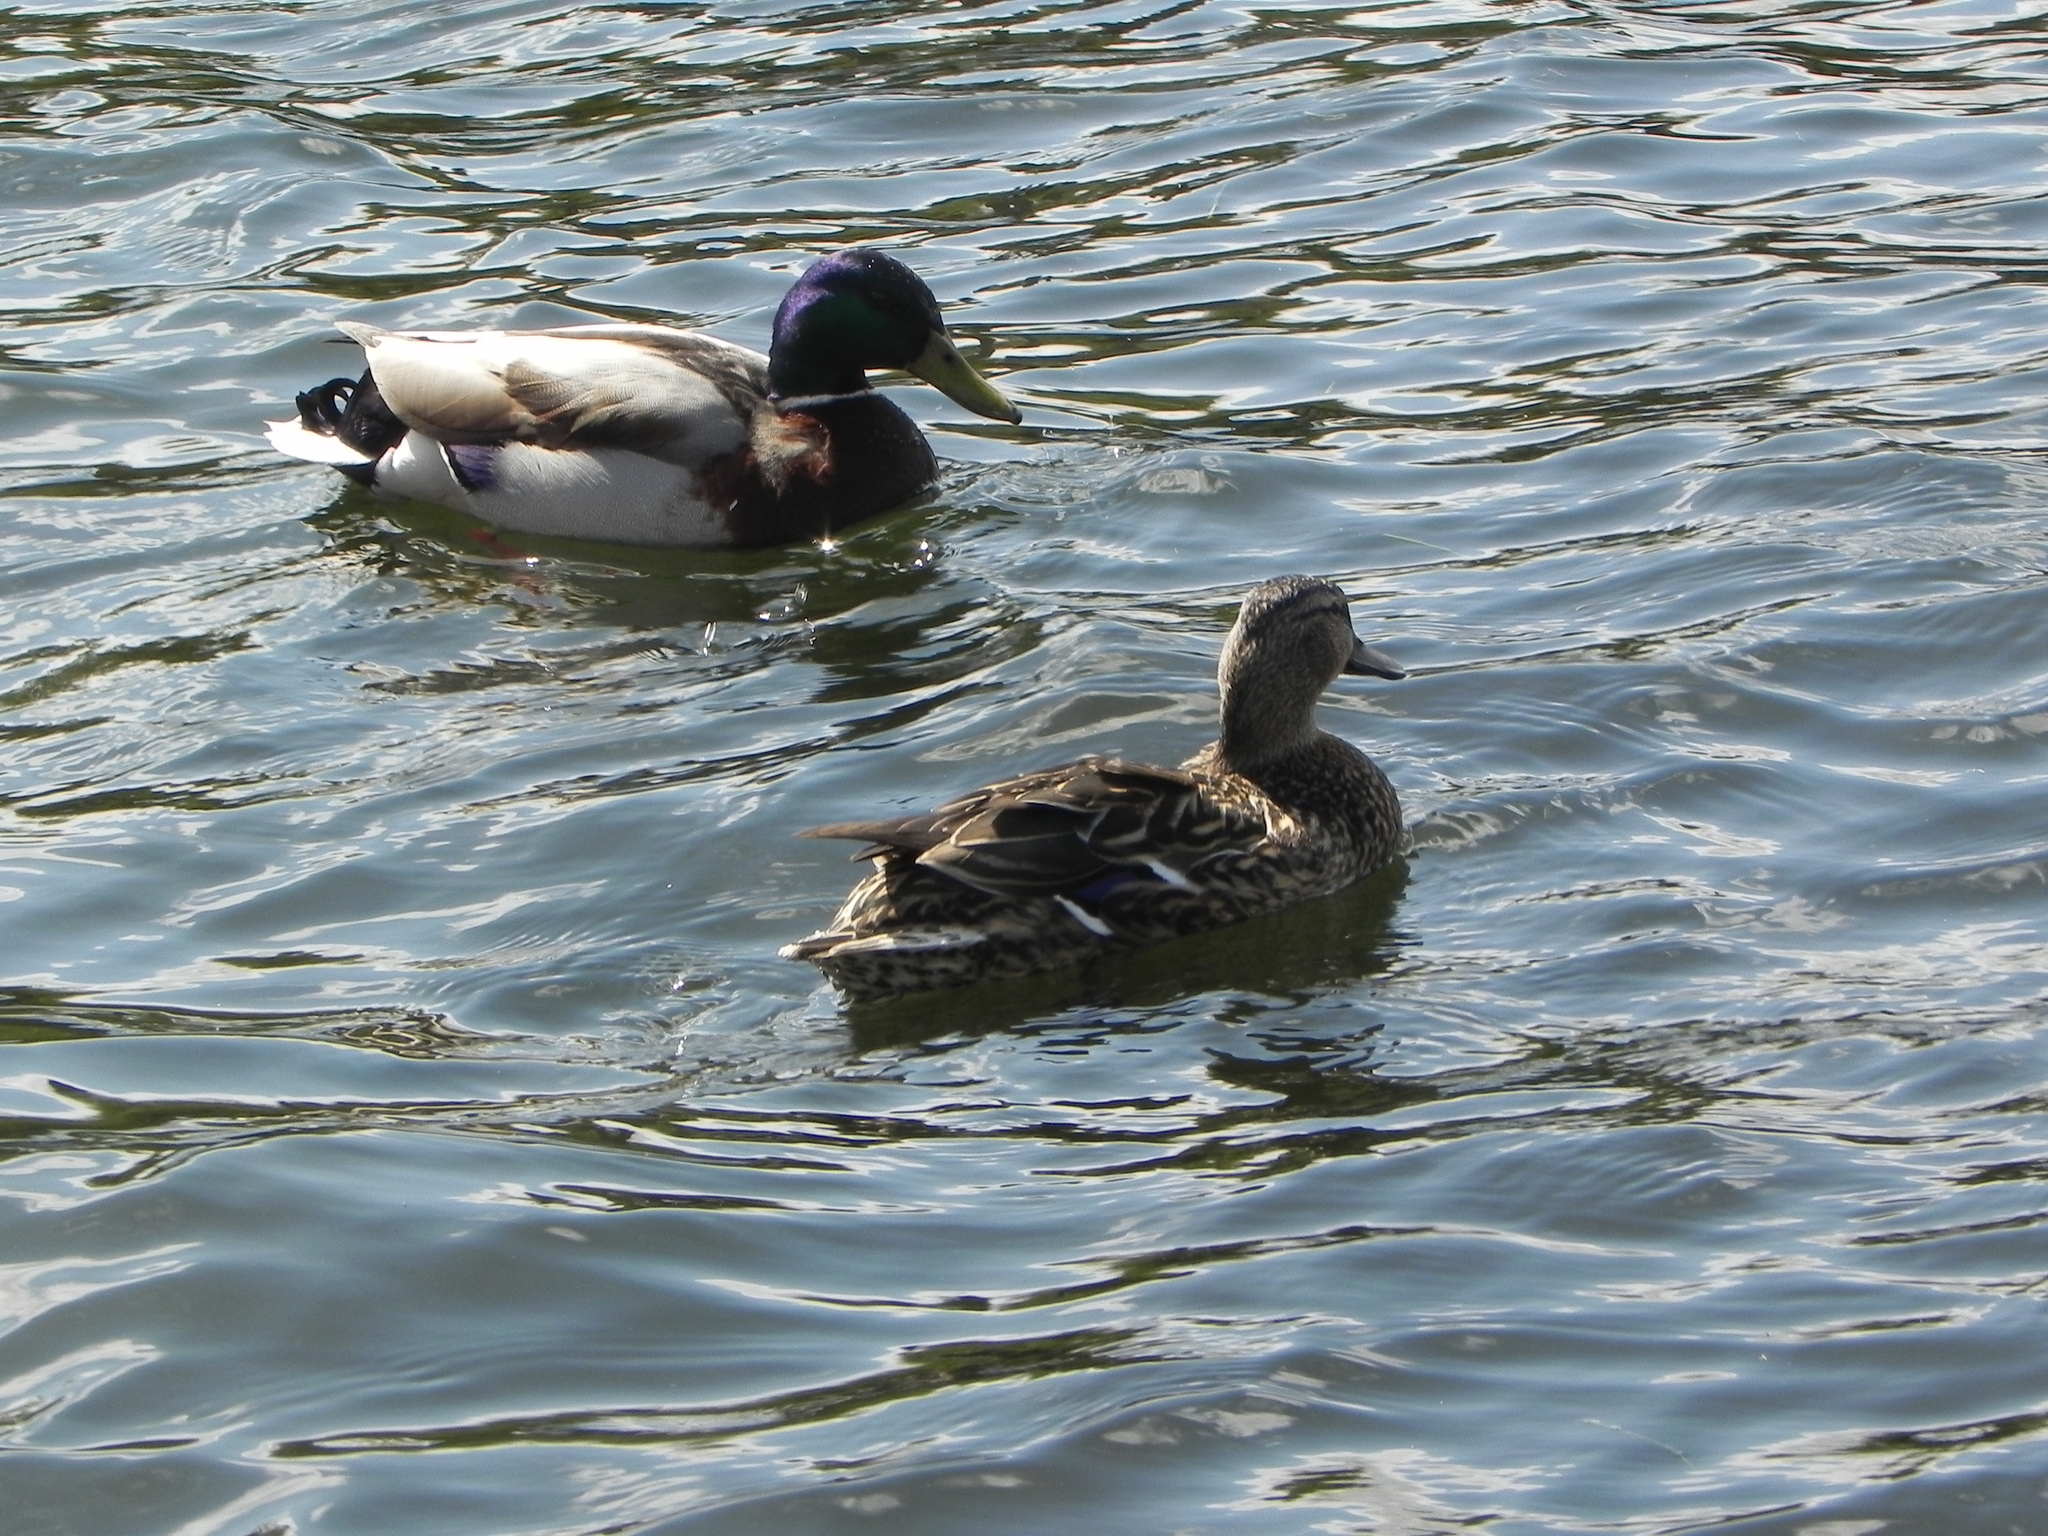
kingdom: Animalia
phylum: Chordata
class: Aves
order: Anseriformes
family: Anatidae
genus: Anas
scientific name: Anas platyrhynchos
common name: Mallard
